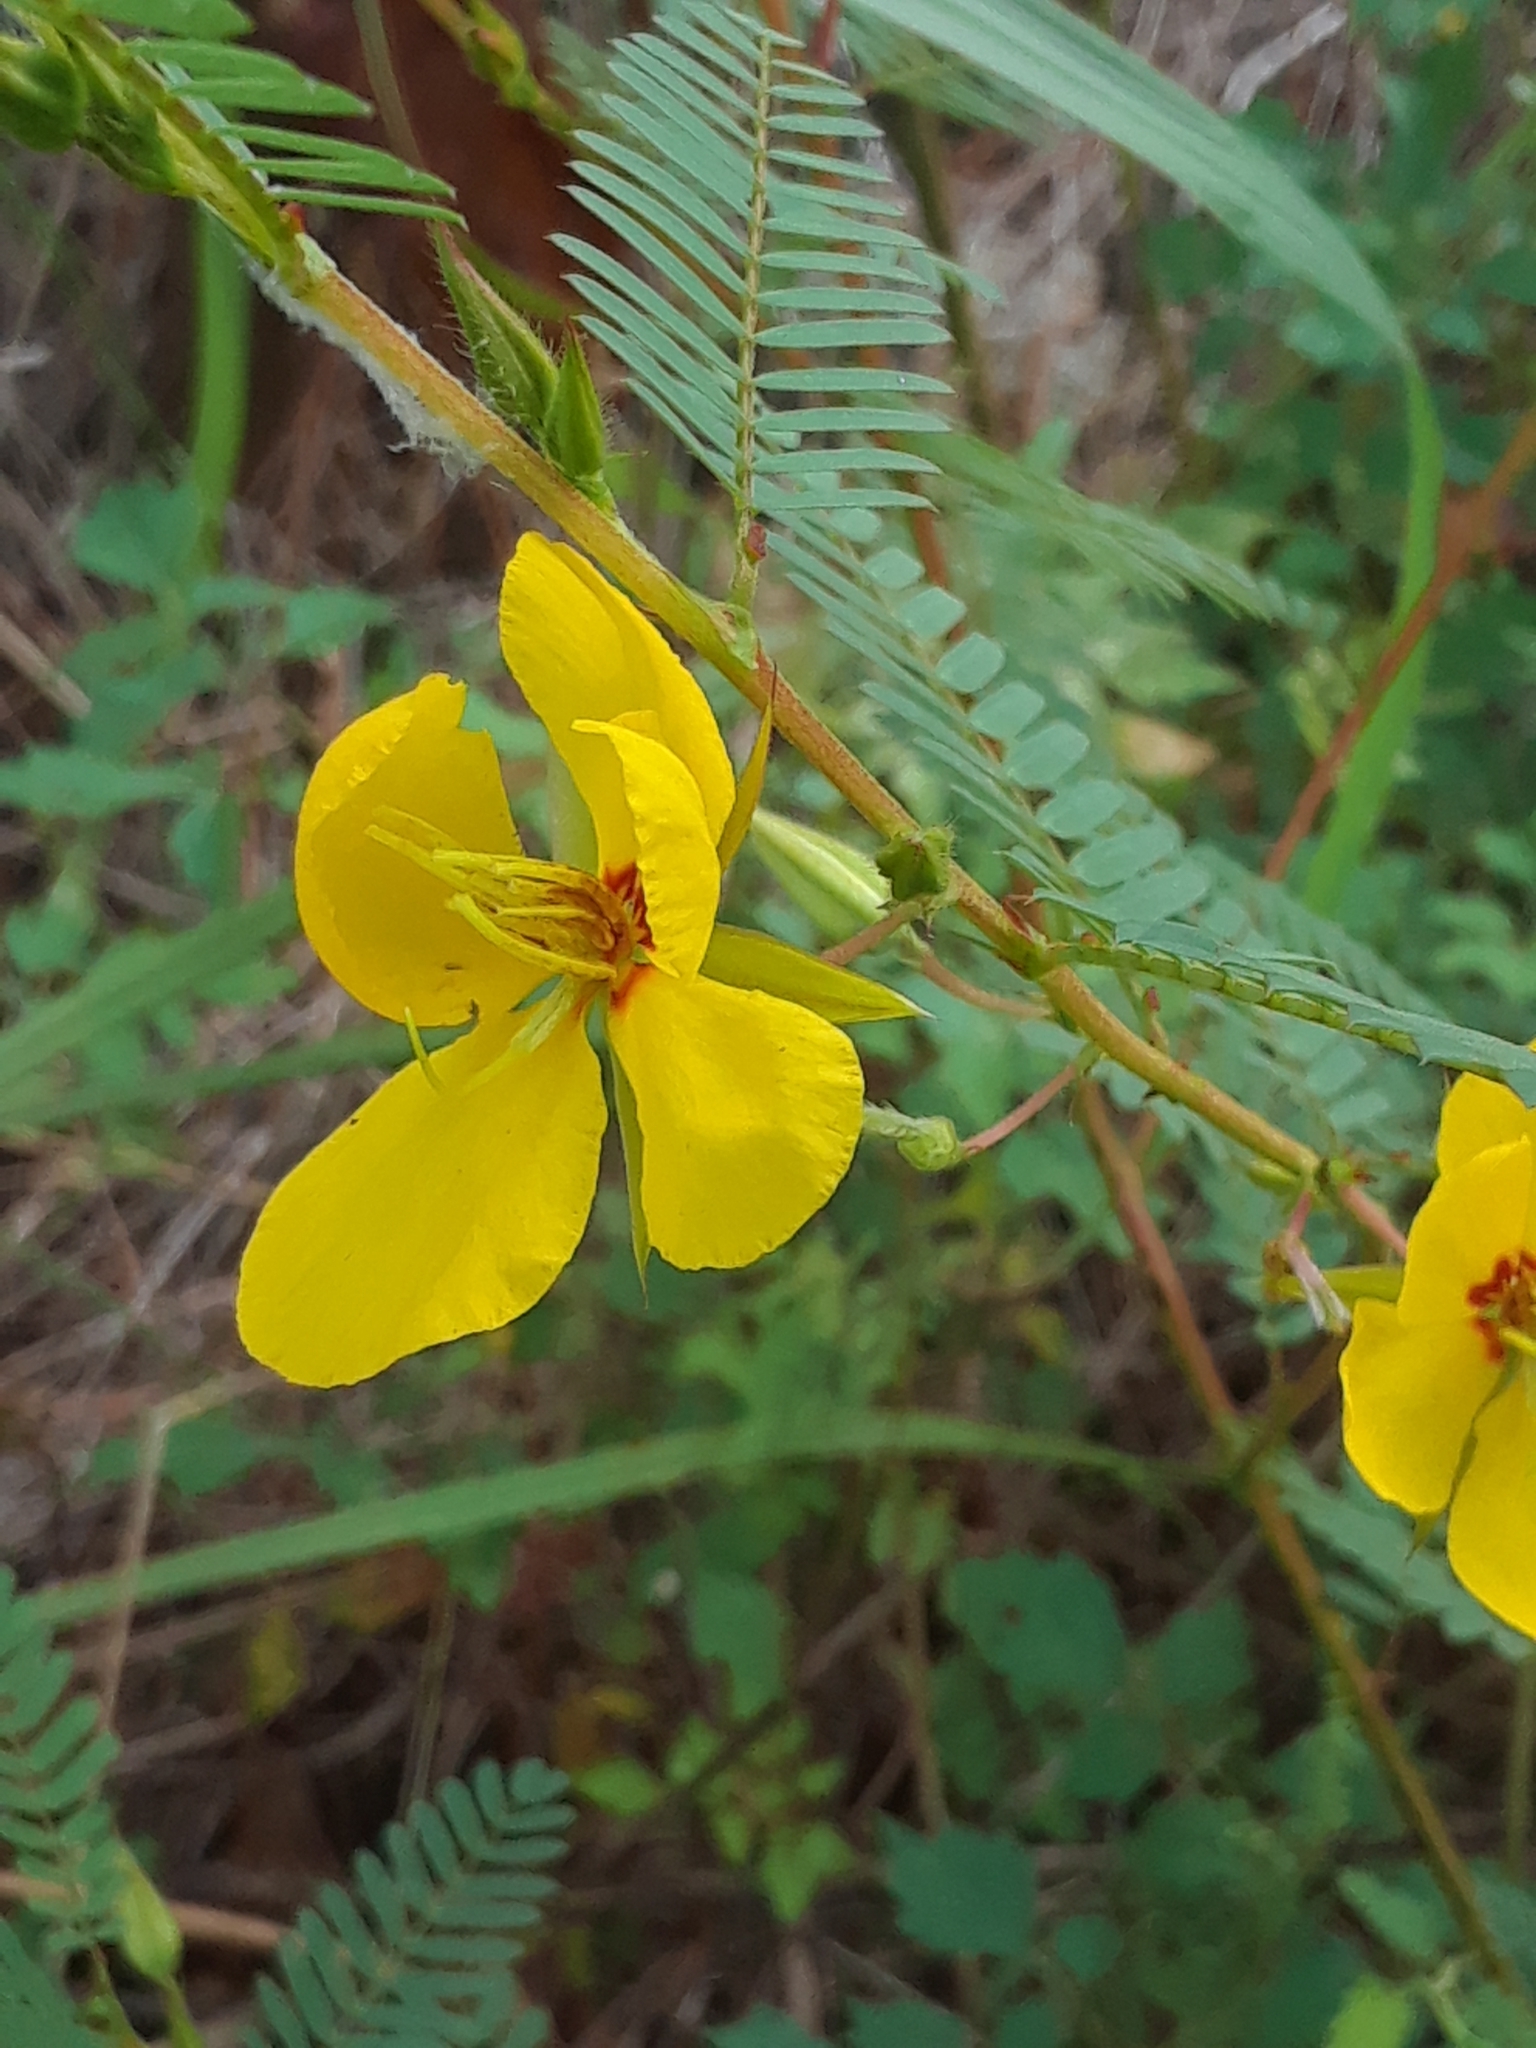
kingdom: Plantae
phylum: Tracheophyta
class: Magnoliopsida
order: Fabales
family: Fabaceae
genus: Chamaecrista
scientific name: Chamaecrista fasciculata
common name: Golden cassia
